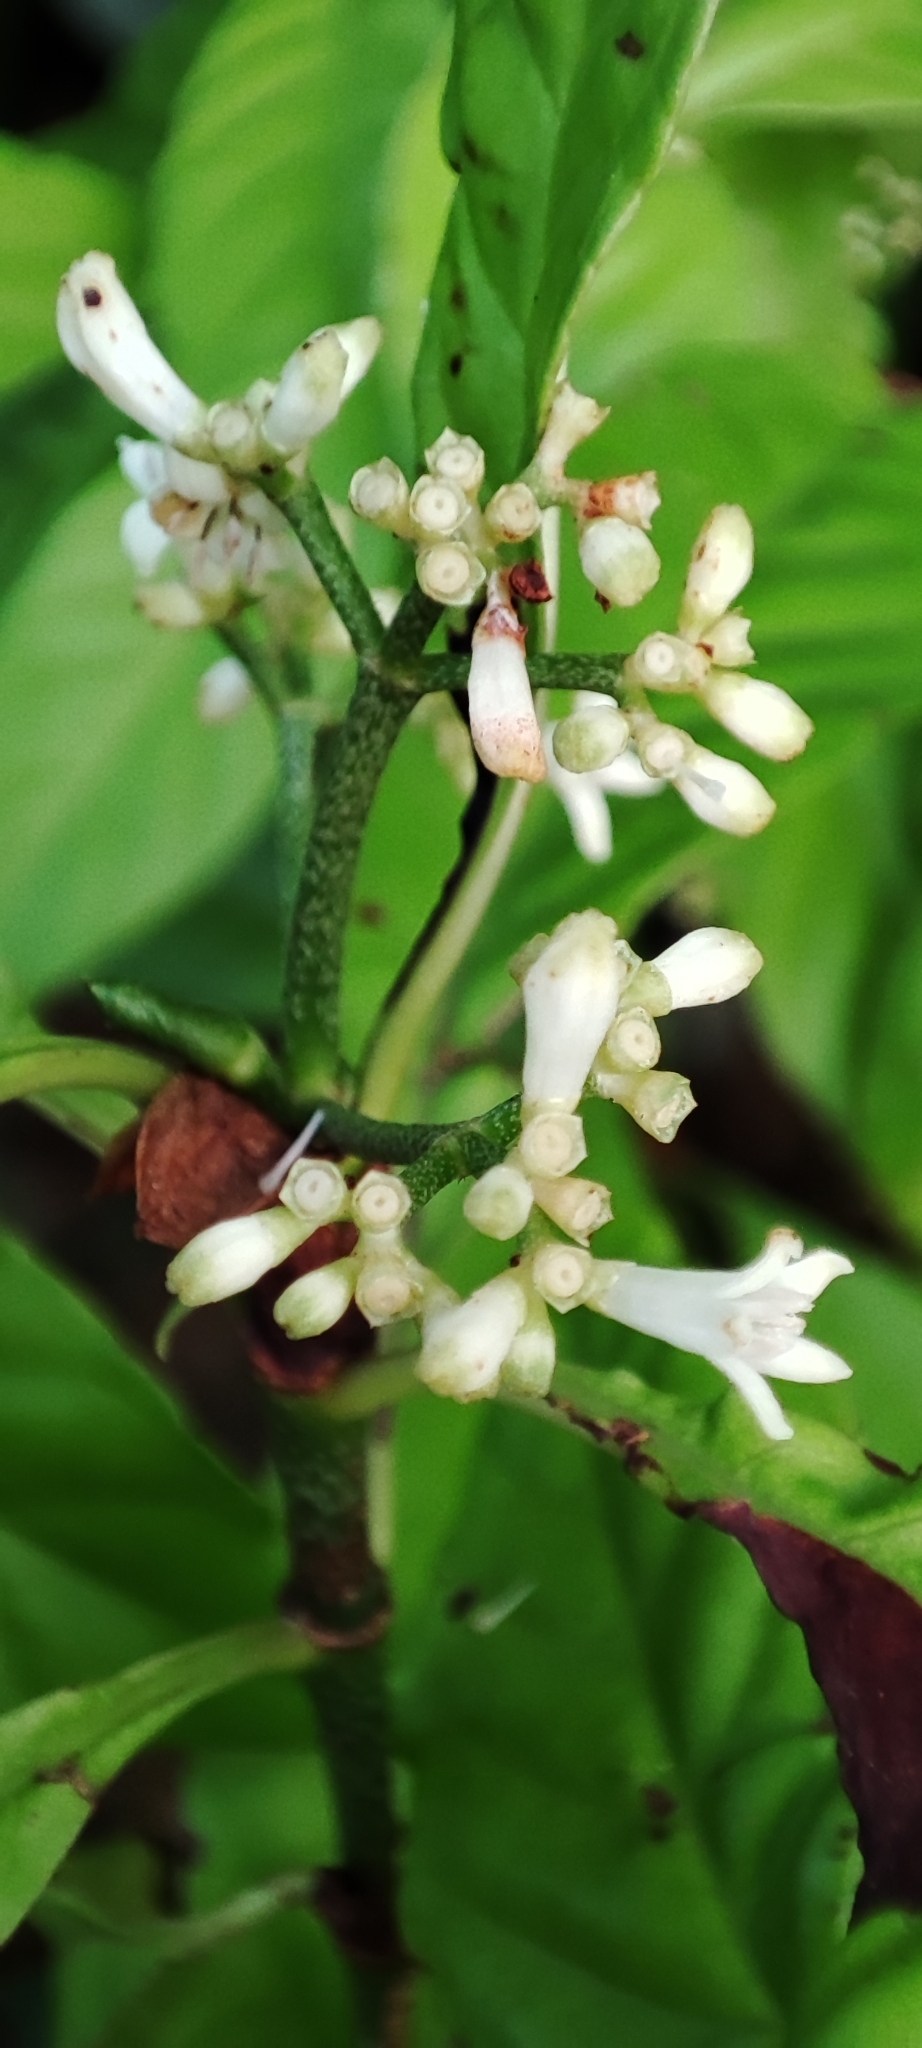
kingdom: Plantae
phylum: Tracheophyta
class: Magnoliopsida
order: Gentianales
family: Rubiaceae
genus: Psychotria
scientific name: Psychotria nervosa
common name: Bastard cankerberry
